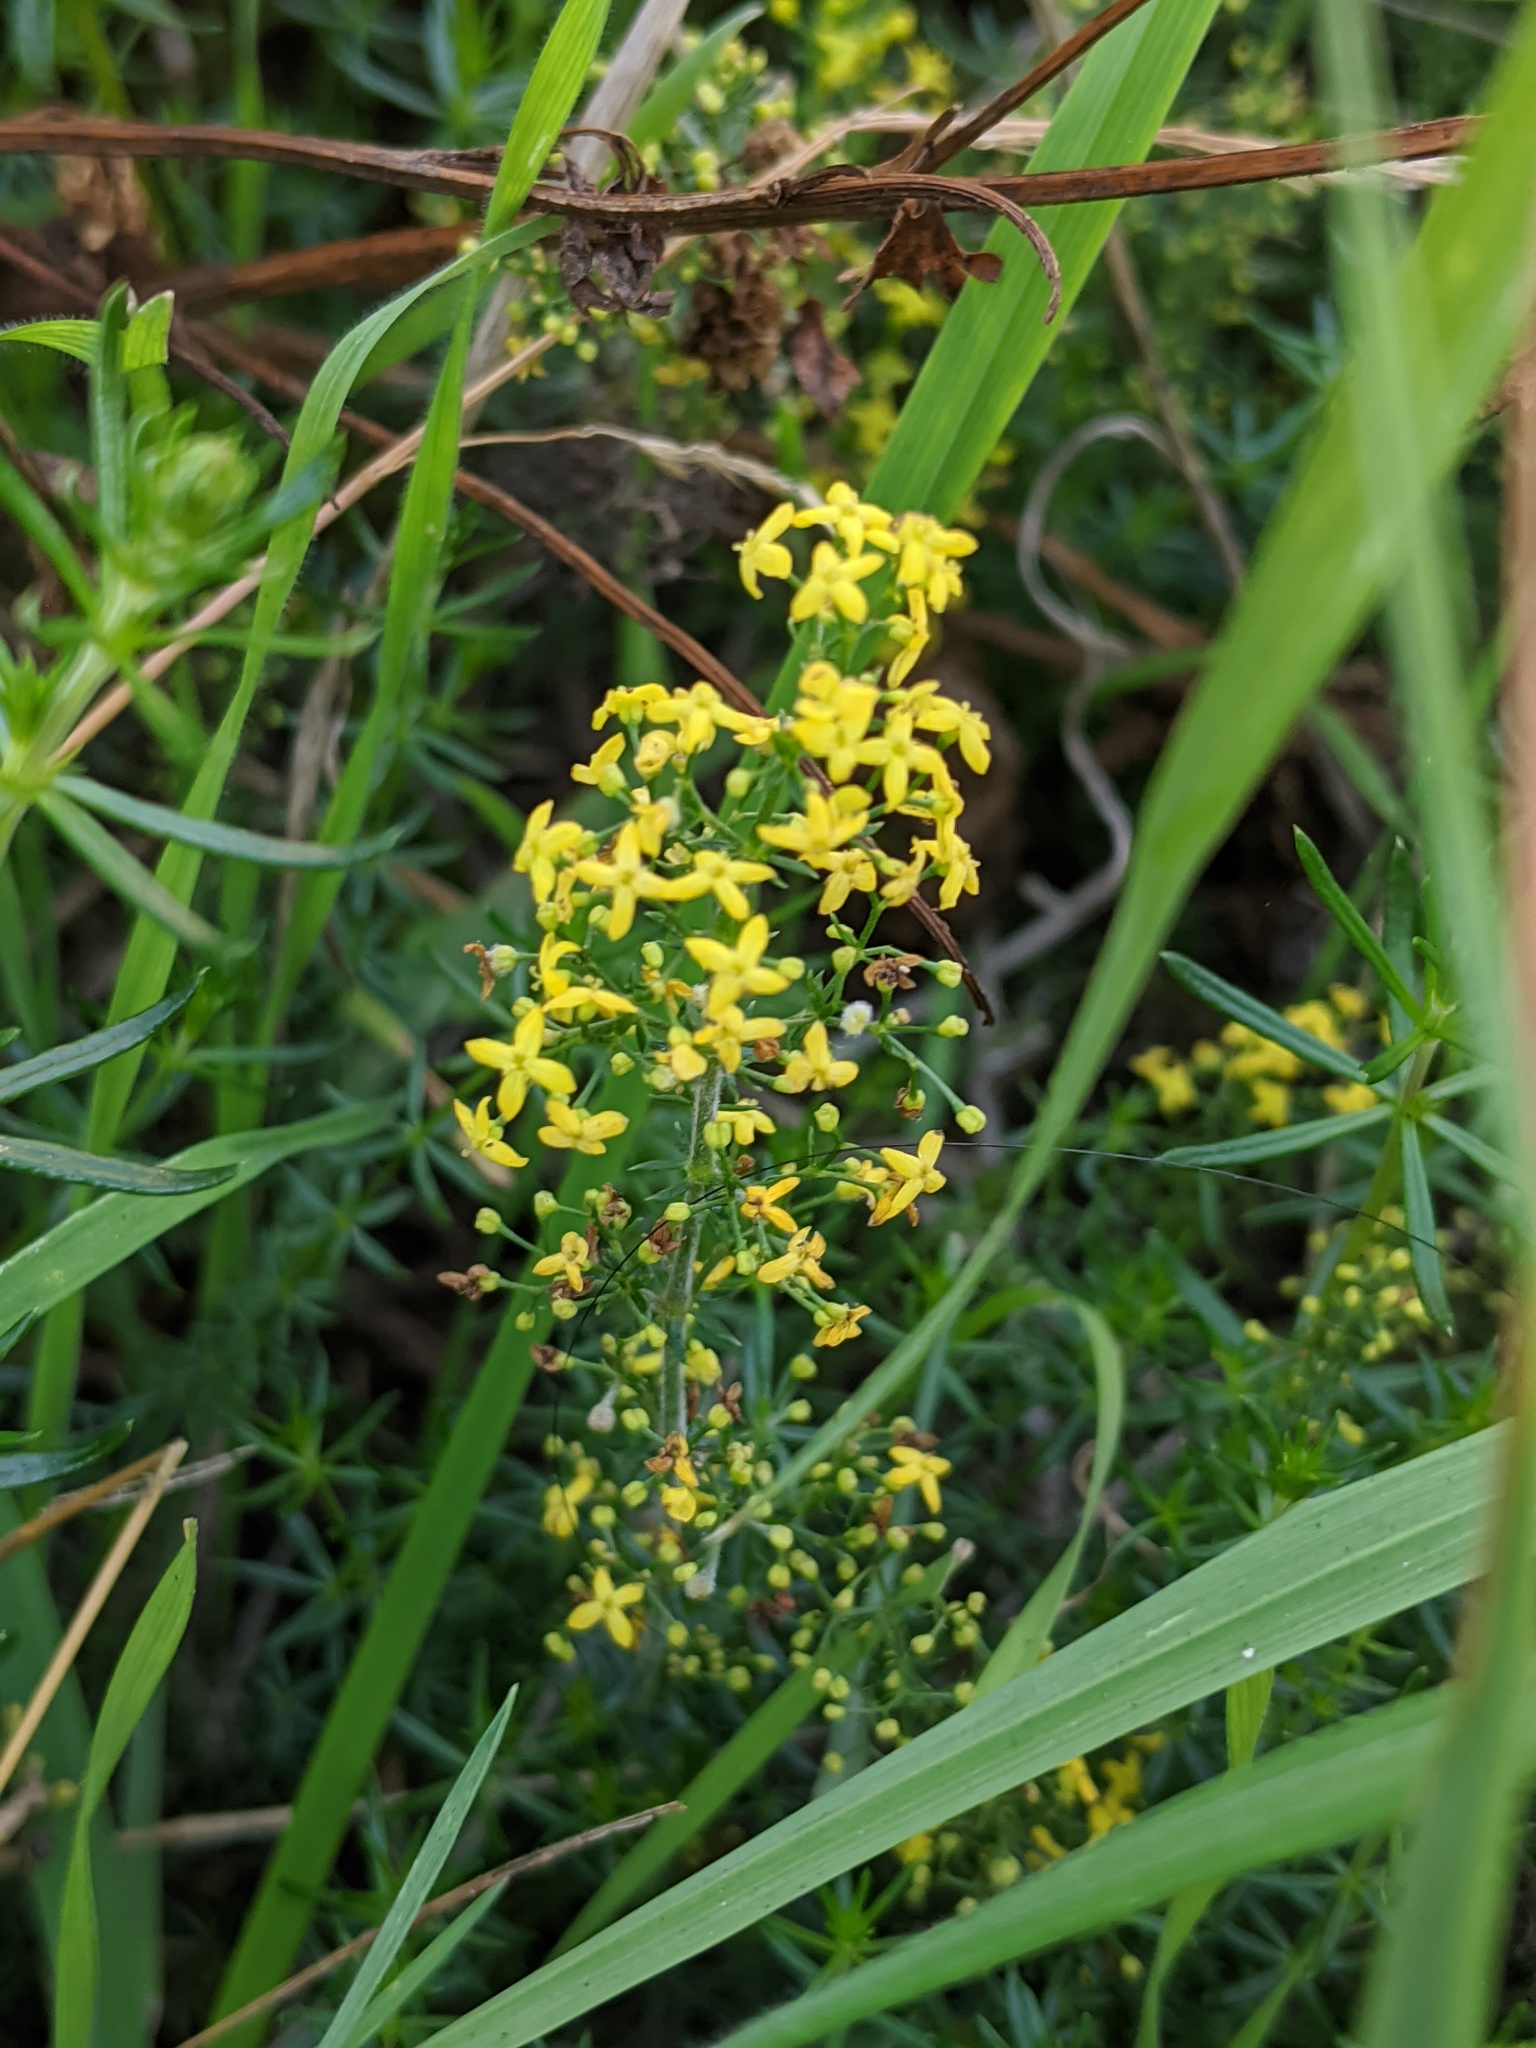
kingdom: Plantae
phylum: Tracheophyta
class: Magnoliopsida
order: Gentianales
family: Rubiaceae
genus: Galium
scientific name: Galium verum
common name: Lady's bedstraw
